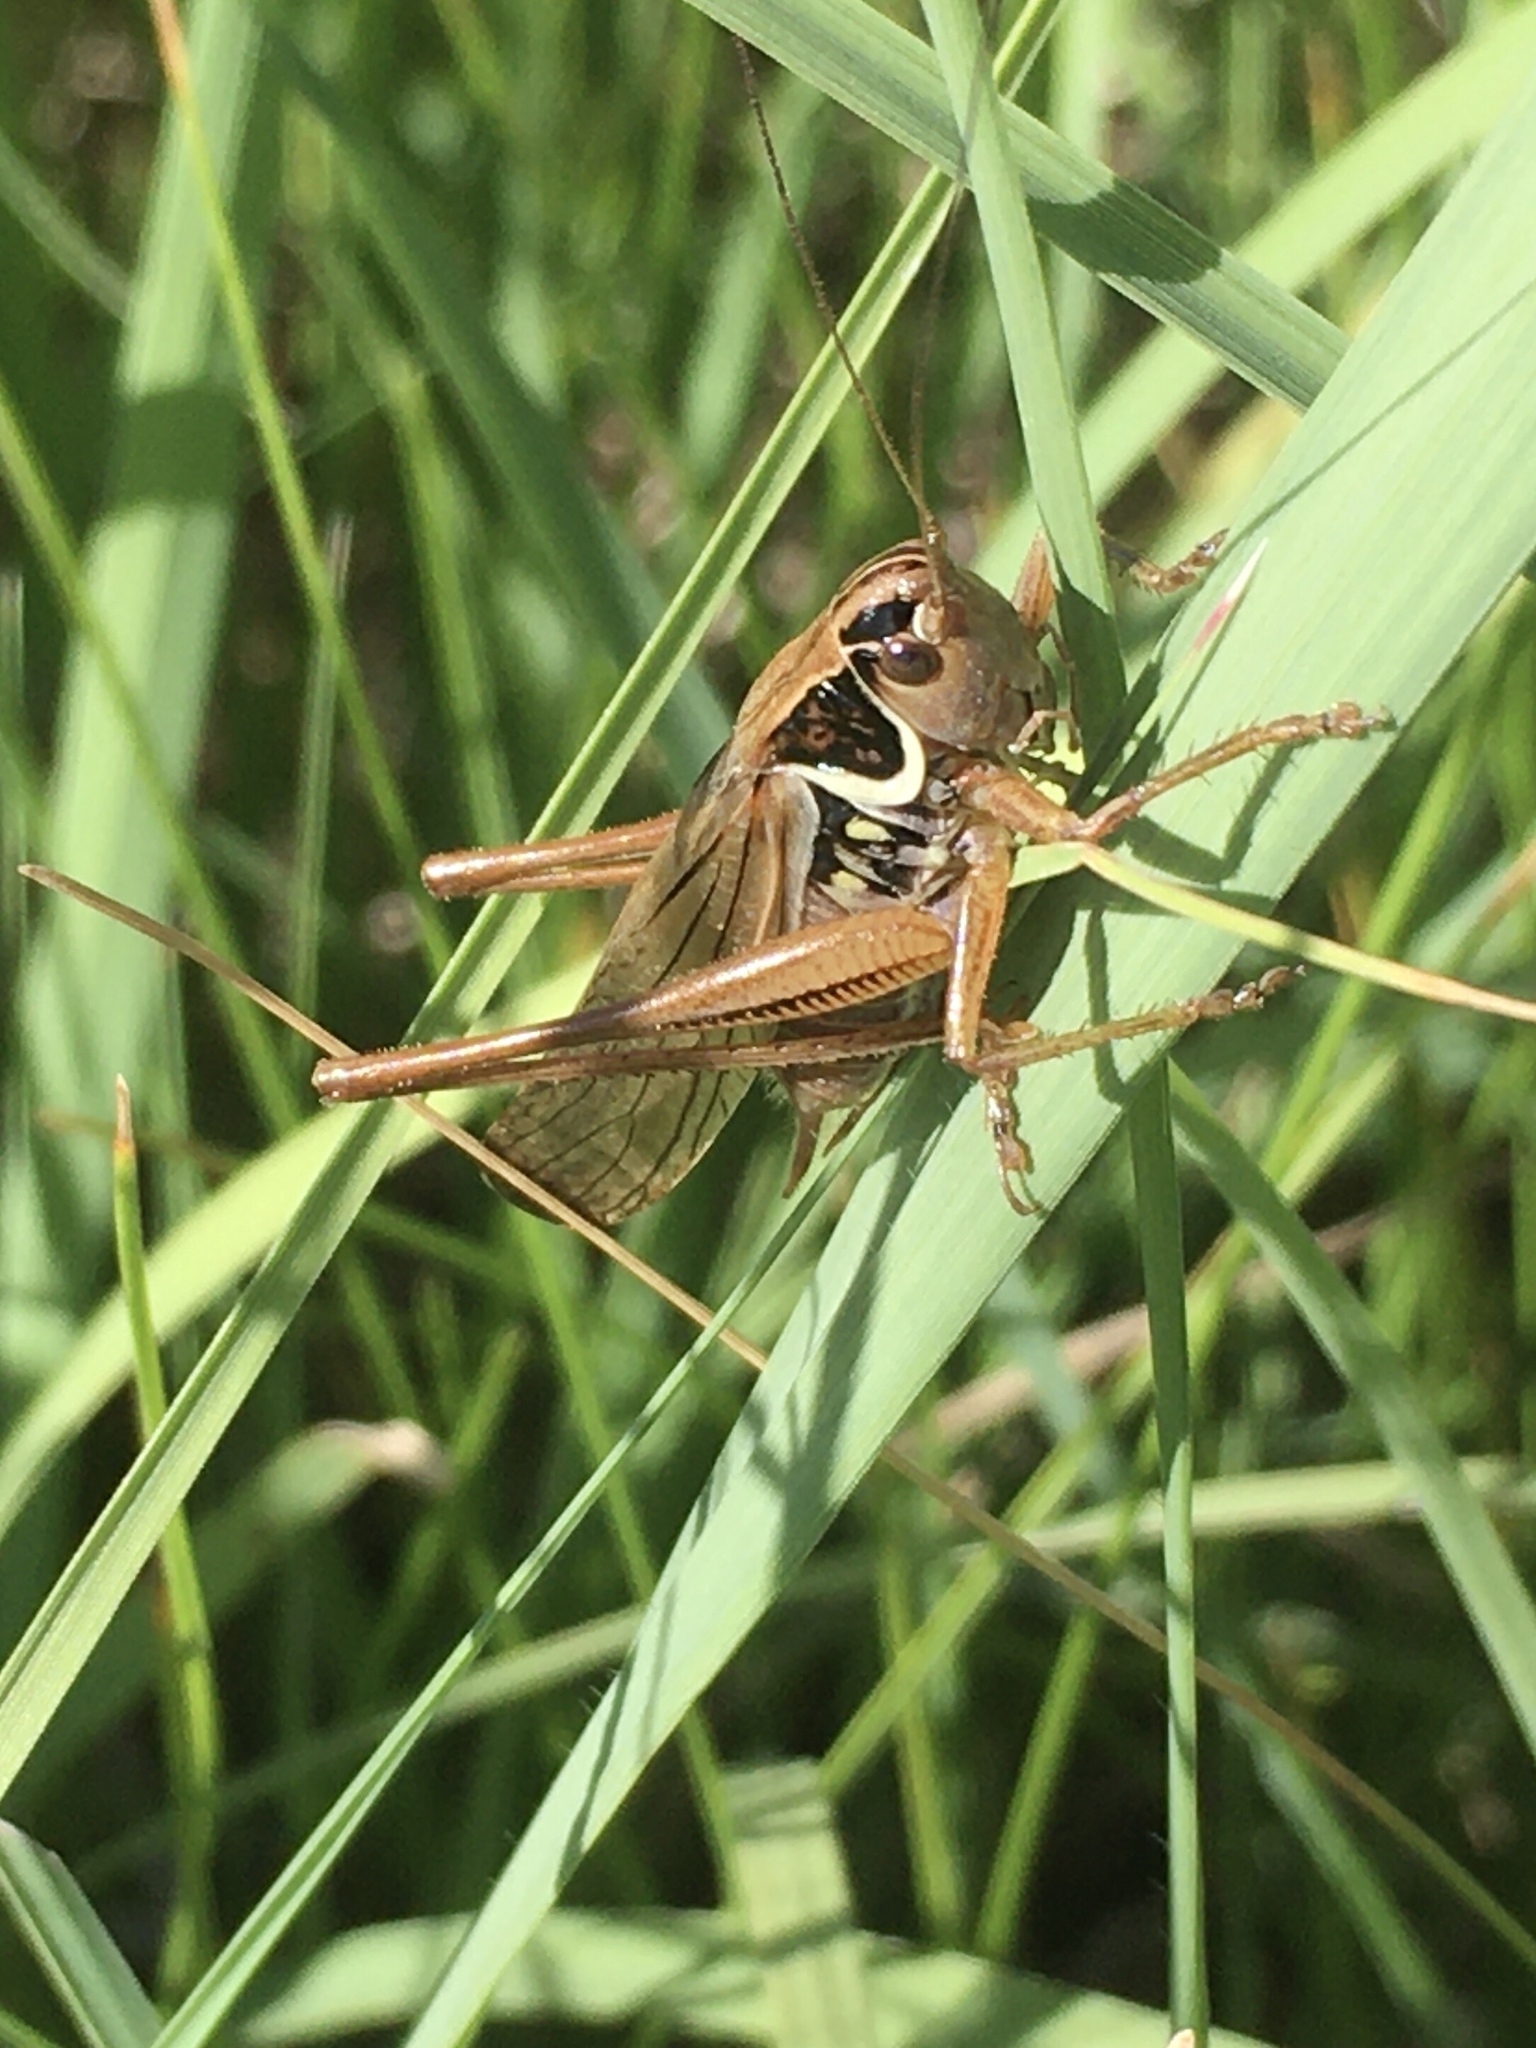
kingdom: Animalia
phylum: Arthropoda
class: Insecta
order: Orthoptera
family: Tettigoniidae
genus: Roeseliana
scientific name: Roeseliana roeselii
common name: Roesel's bush cricket
